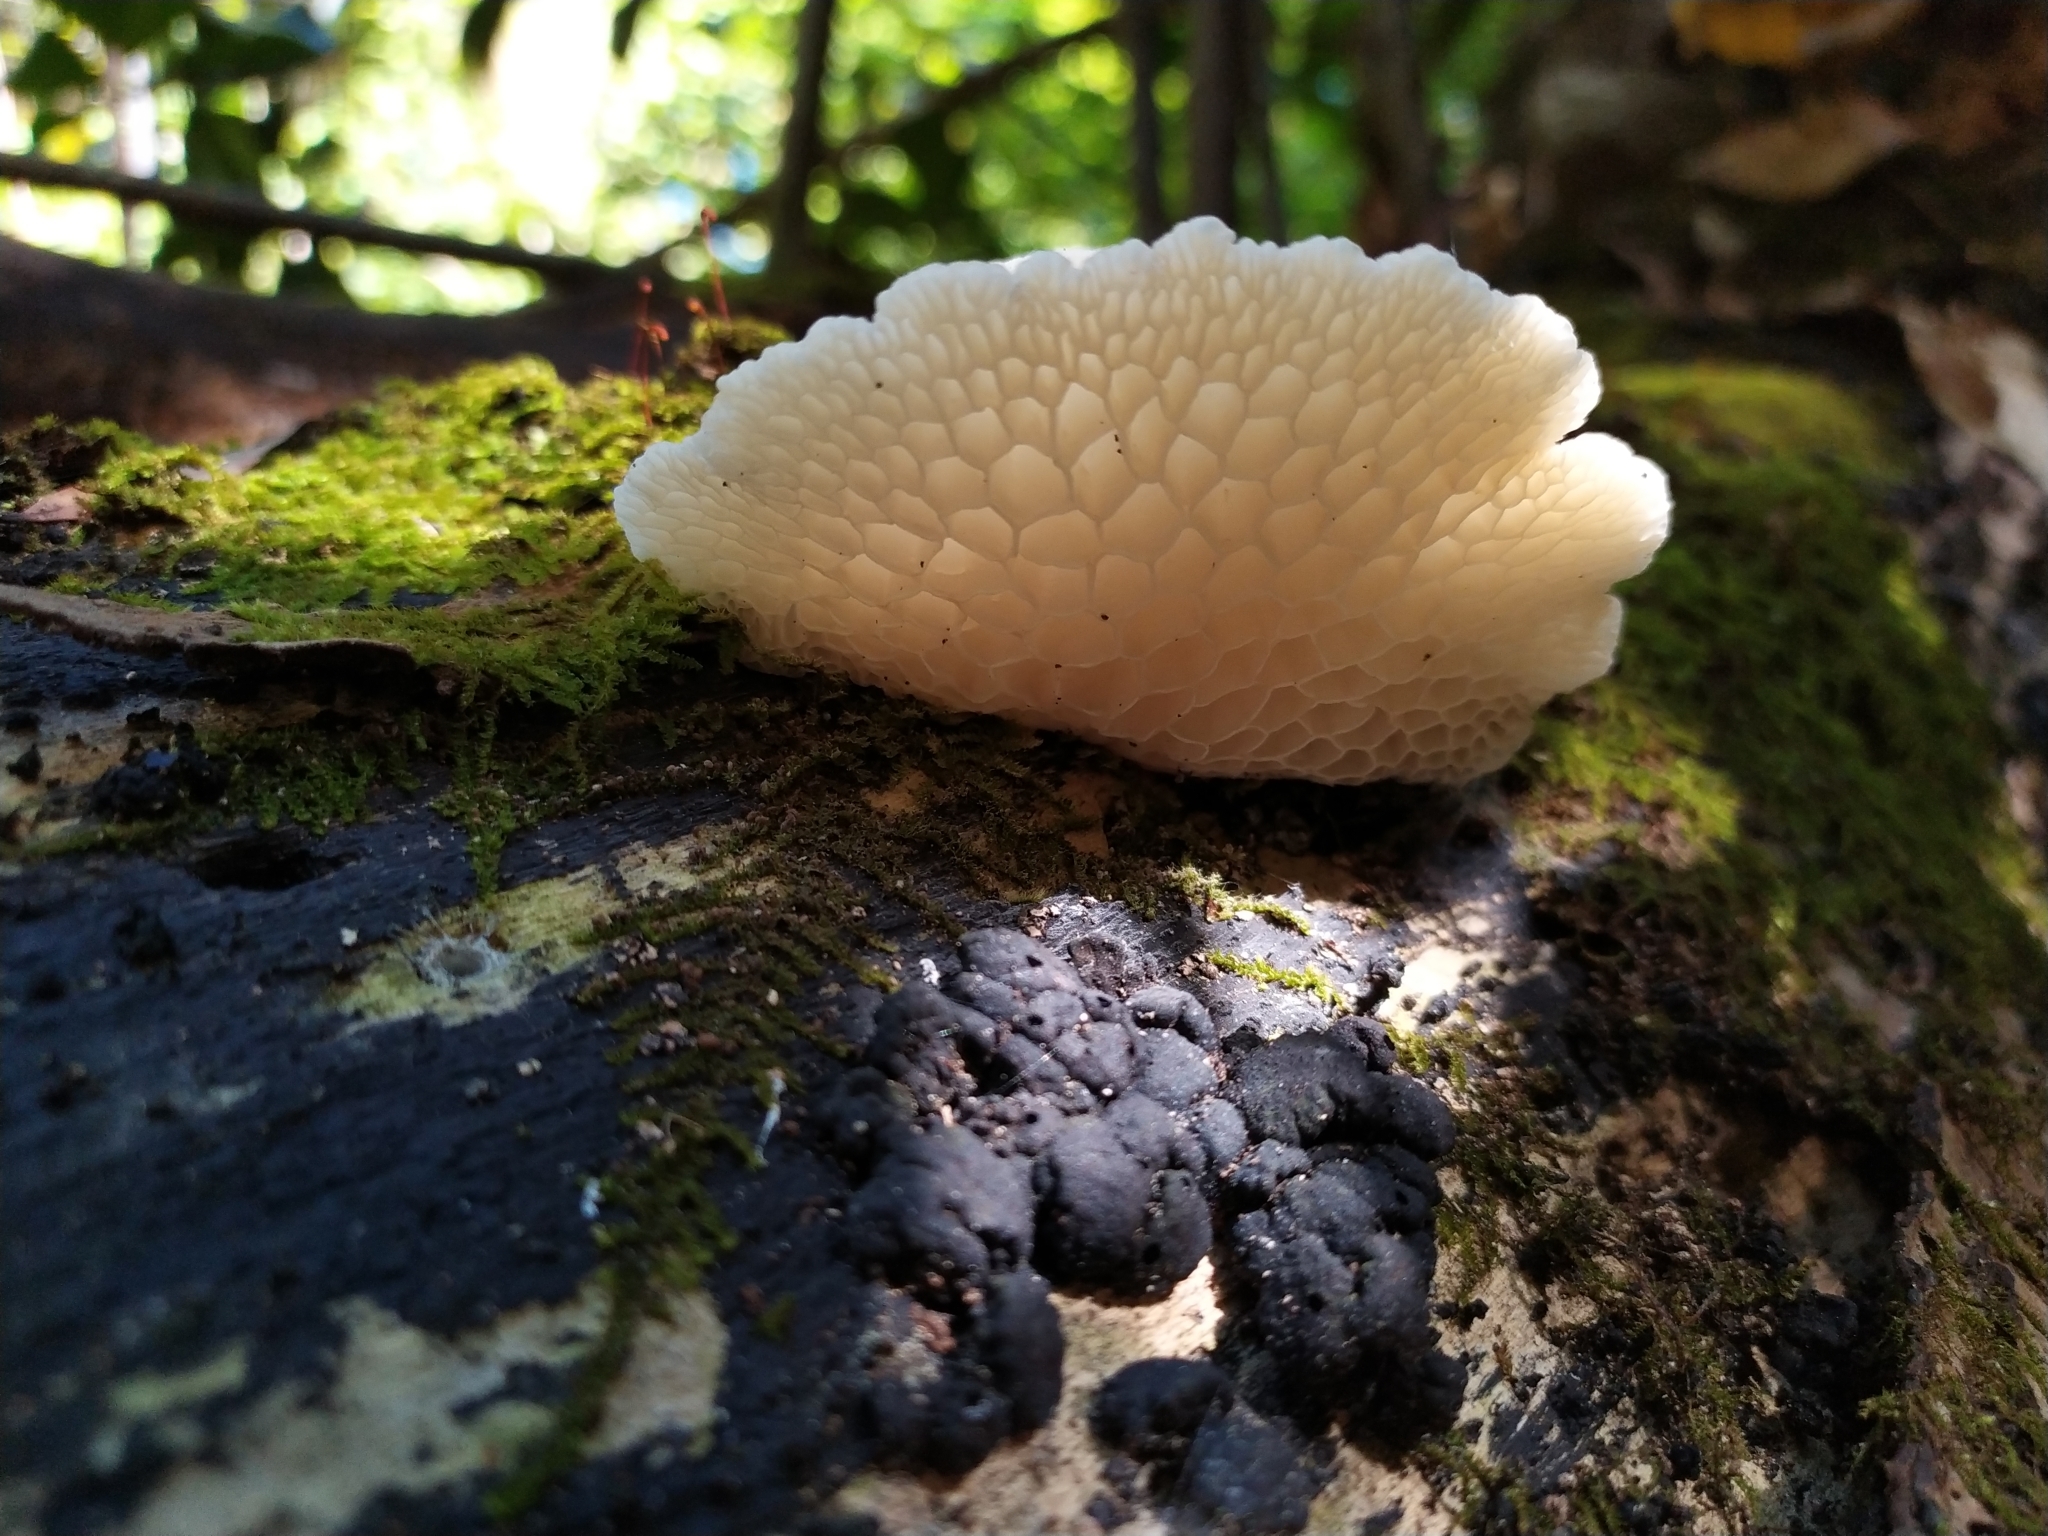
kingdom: Fungi
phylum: Basidiomycota
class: Agaricomycetes
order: Agaricales
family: Mycenaceae
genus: Favolaschia
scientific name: Favolaschia pustulosa
